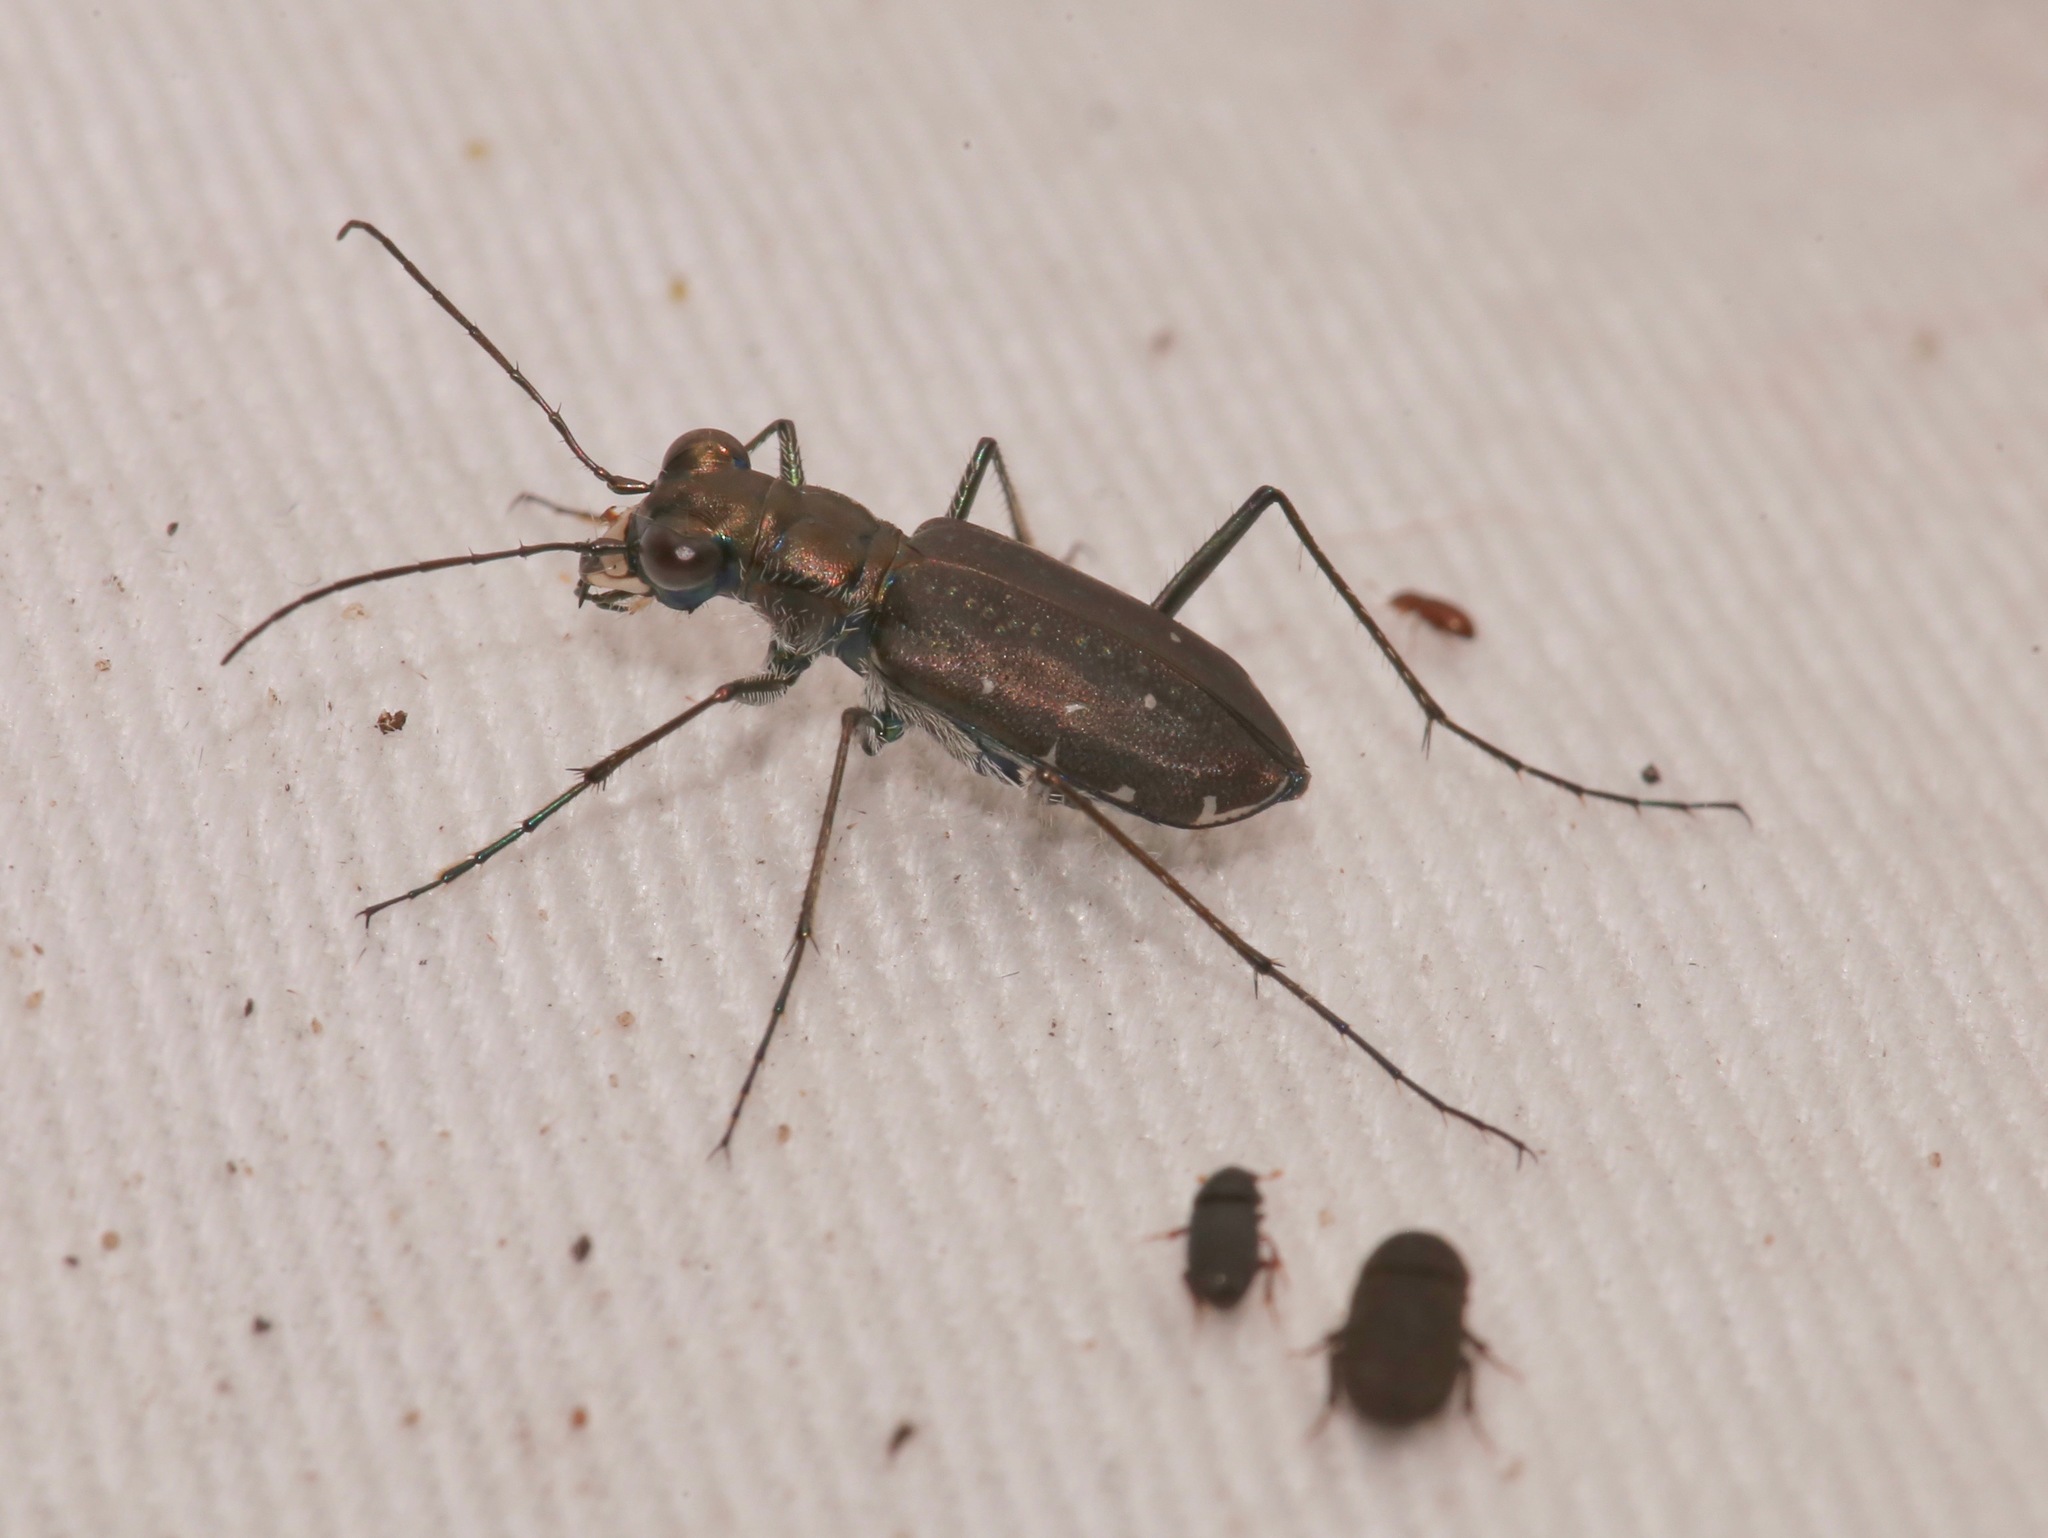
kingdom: Animalia
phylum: Arthropoda
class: Insecta
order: Coleoptera
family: Carabidae
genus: Cicindela
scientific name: Cicindela punctulata
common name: Punctured tiger beetle
